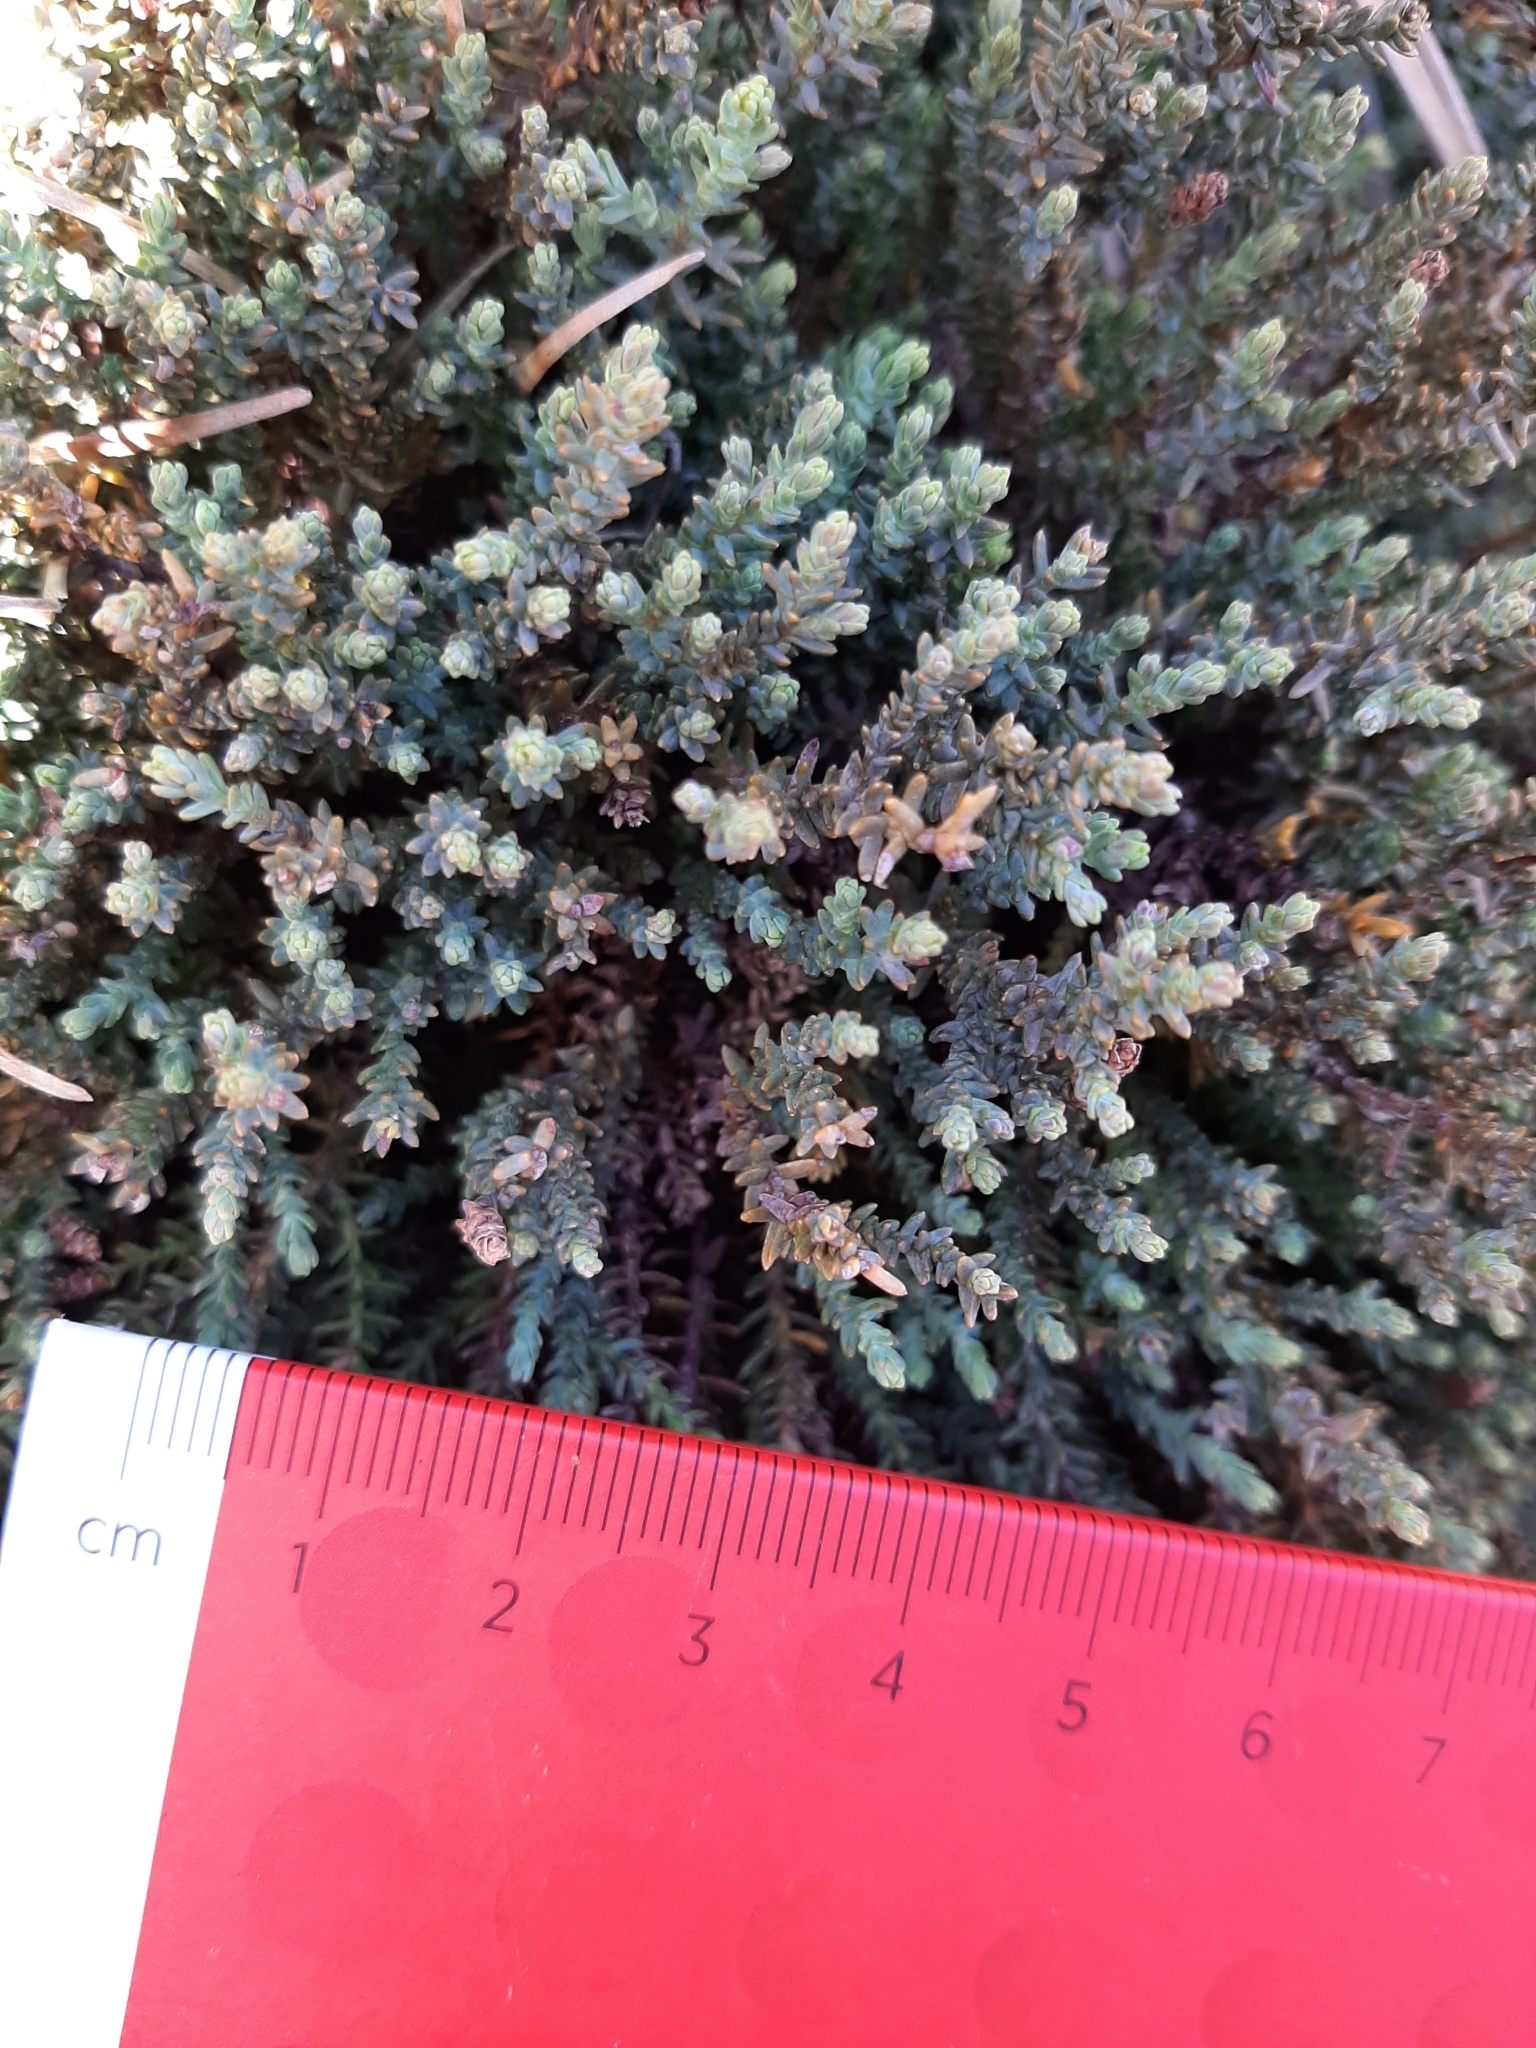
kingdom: Plantae
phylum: Tracheophyta
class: Pinopsida
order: Pinales
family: Podocarpaceae
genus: Lepidothamnus
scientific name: Lepidothamnus laxifolius
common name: Pygmy pine
